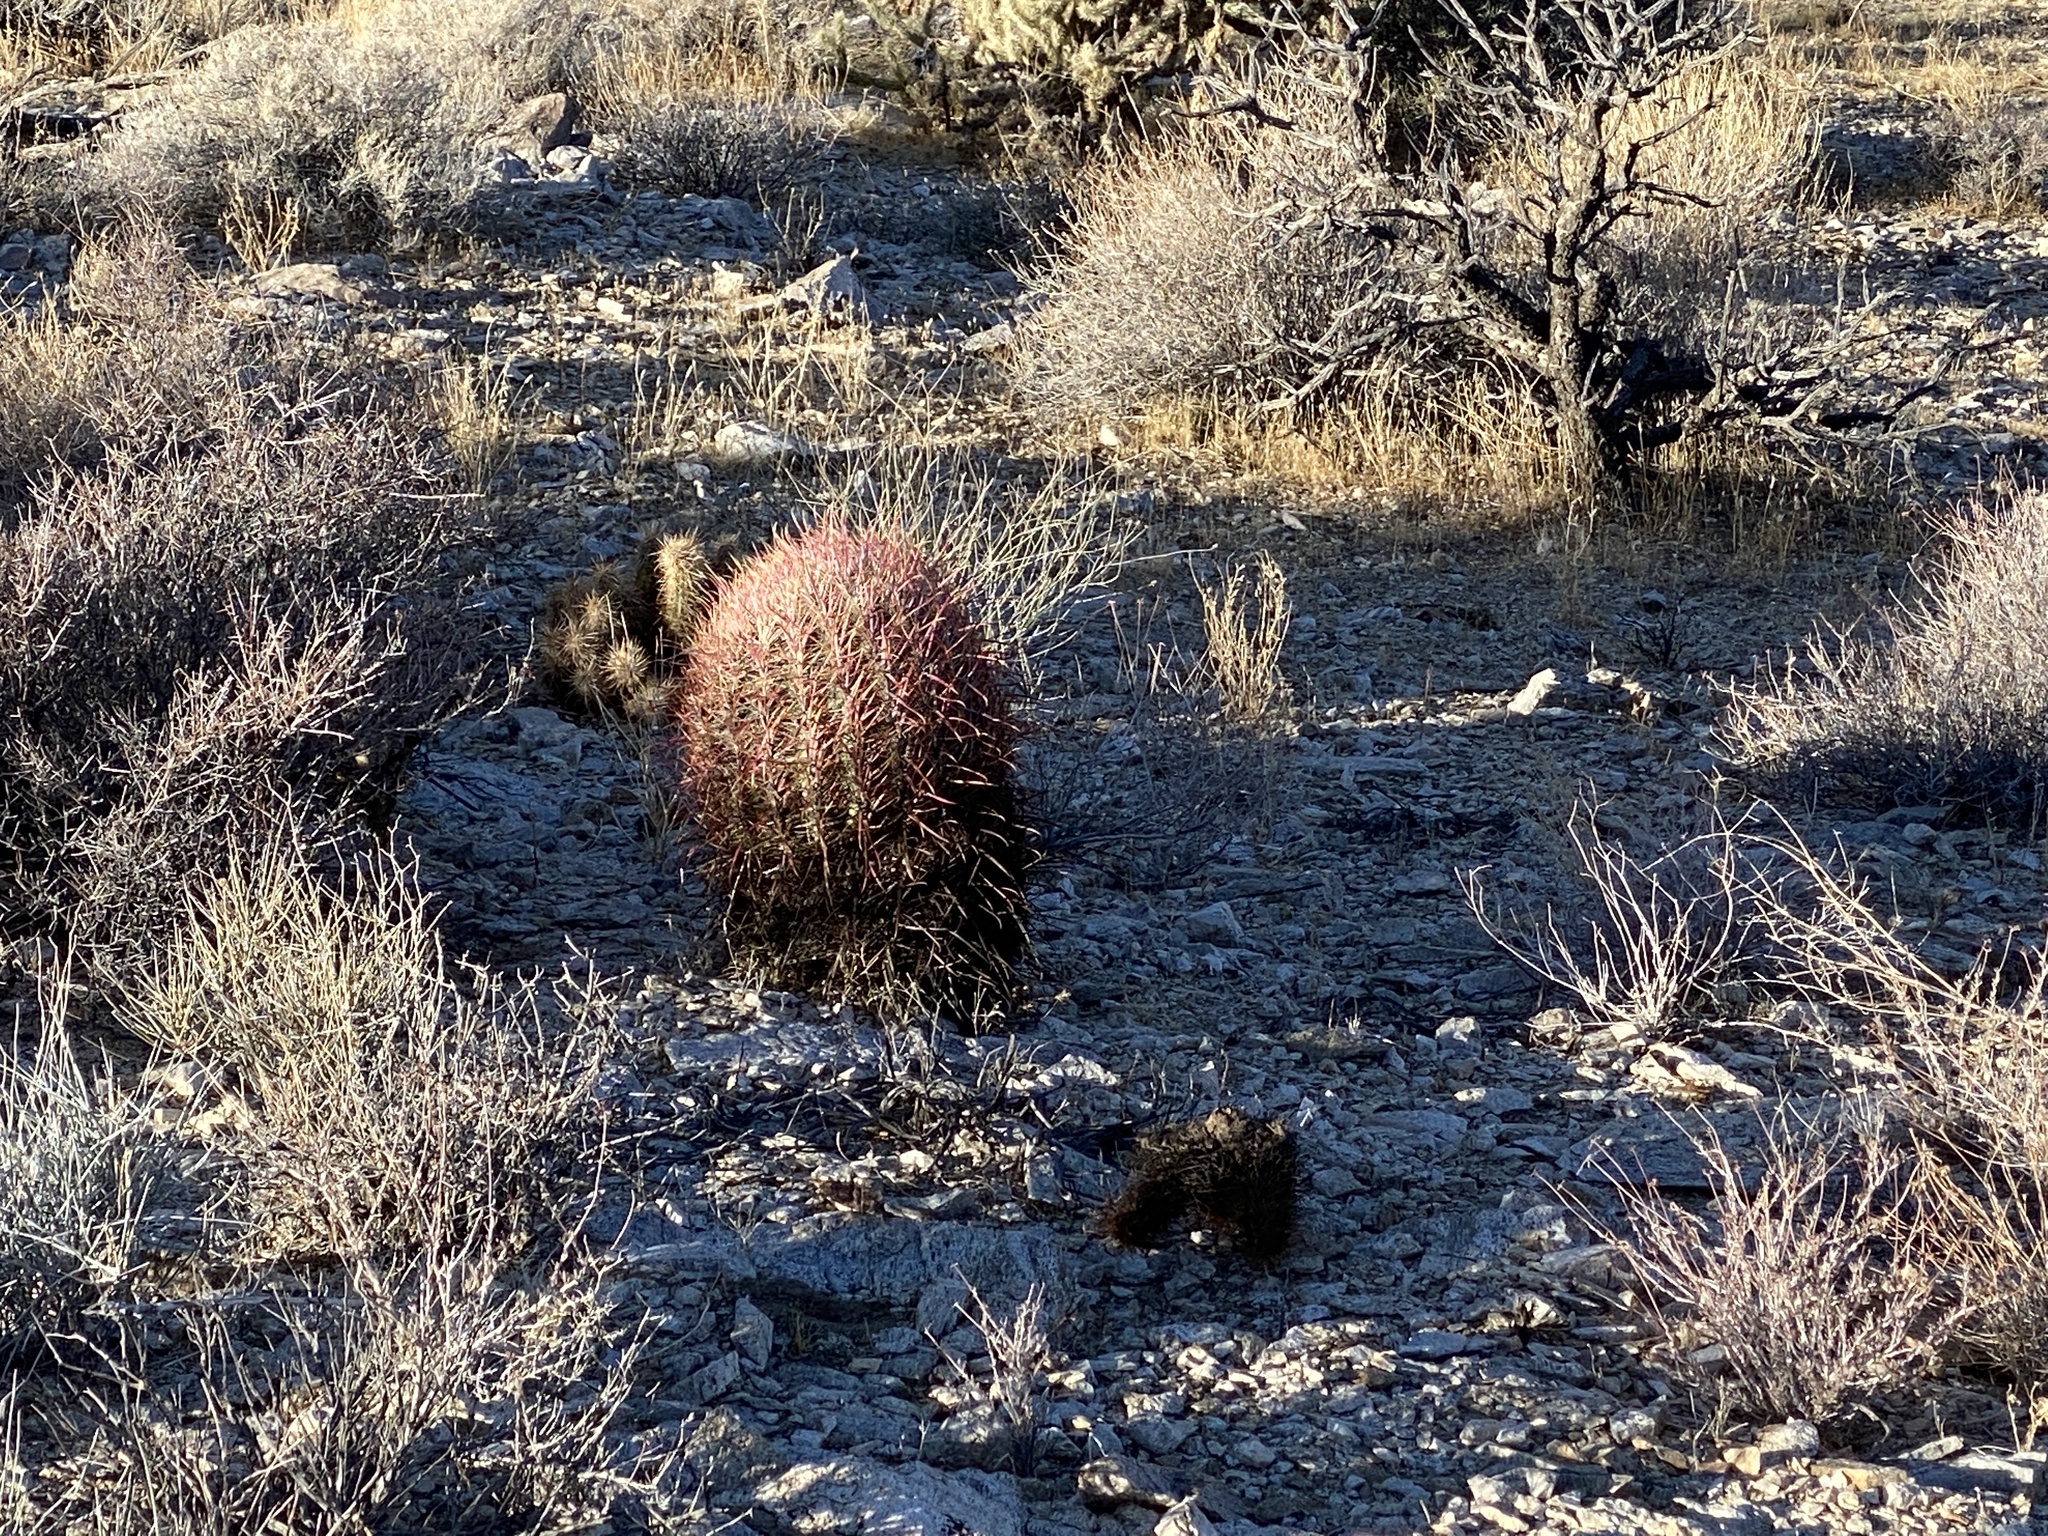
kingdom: Plantae
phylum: Tracheophyta
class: Magnoliopsida
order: Caryophyllales
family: Cactaceae
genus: Ferocactus
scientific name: Ferocactus cylindraceus
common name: California barrel cactus
